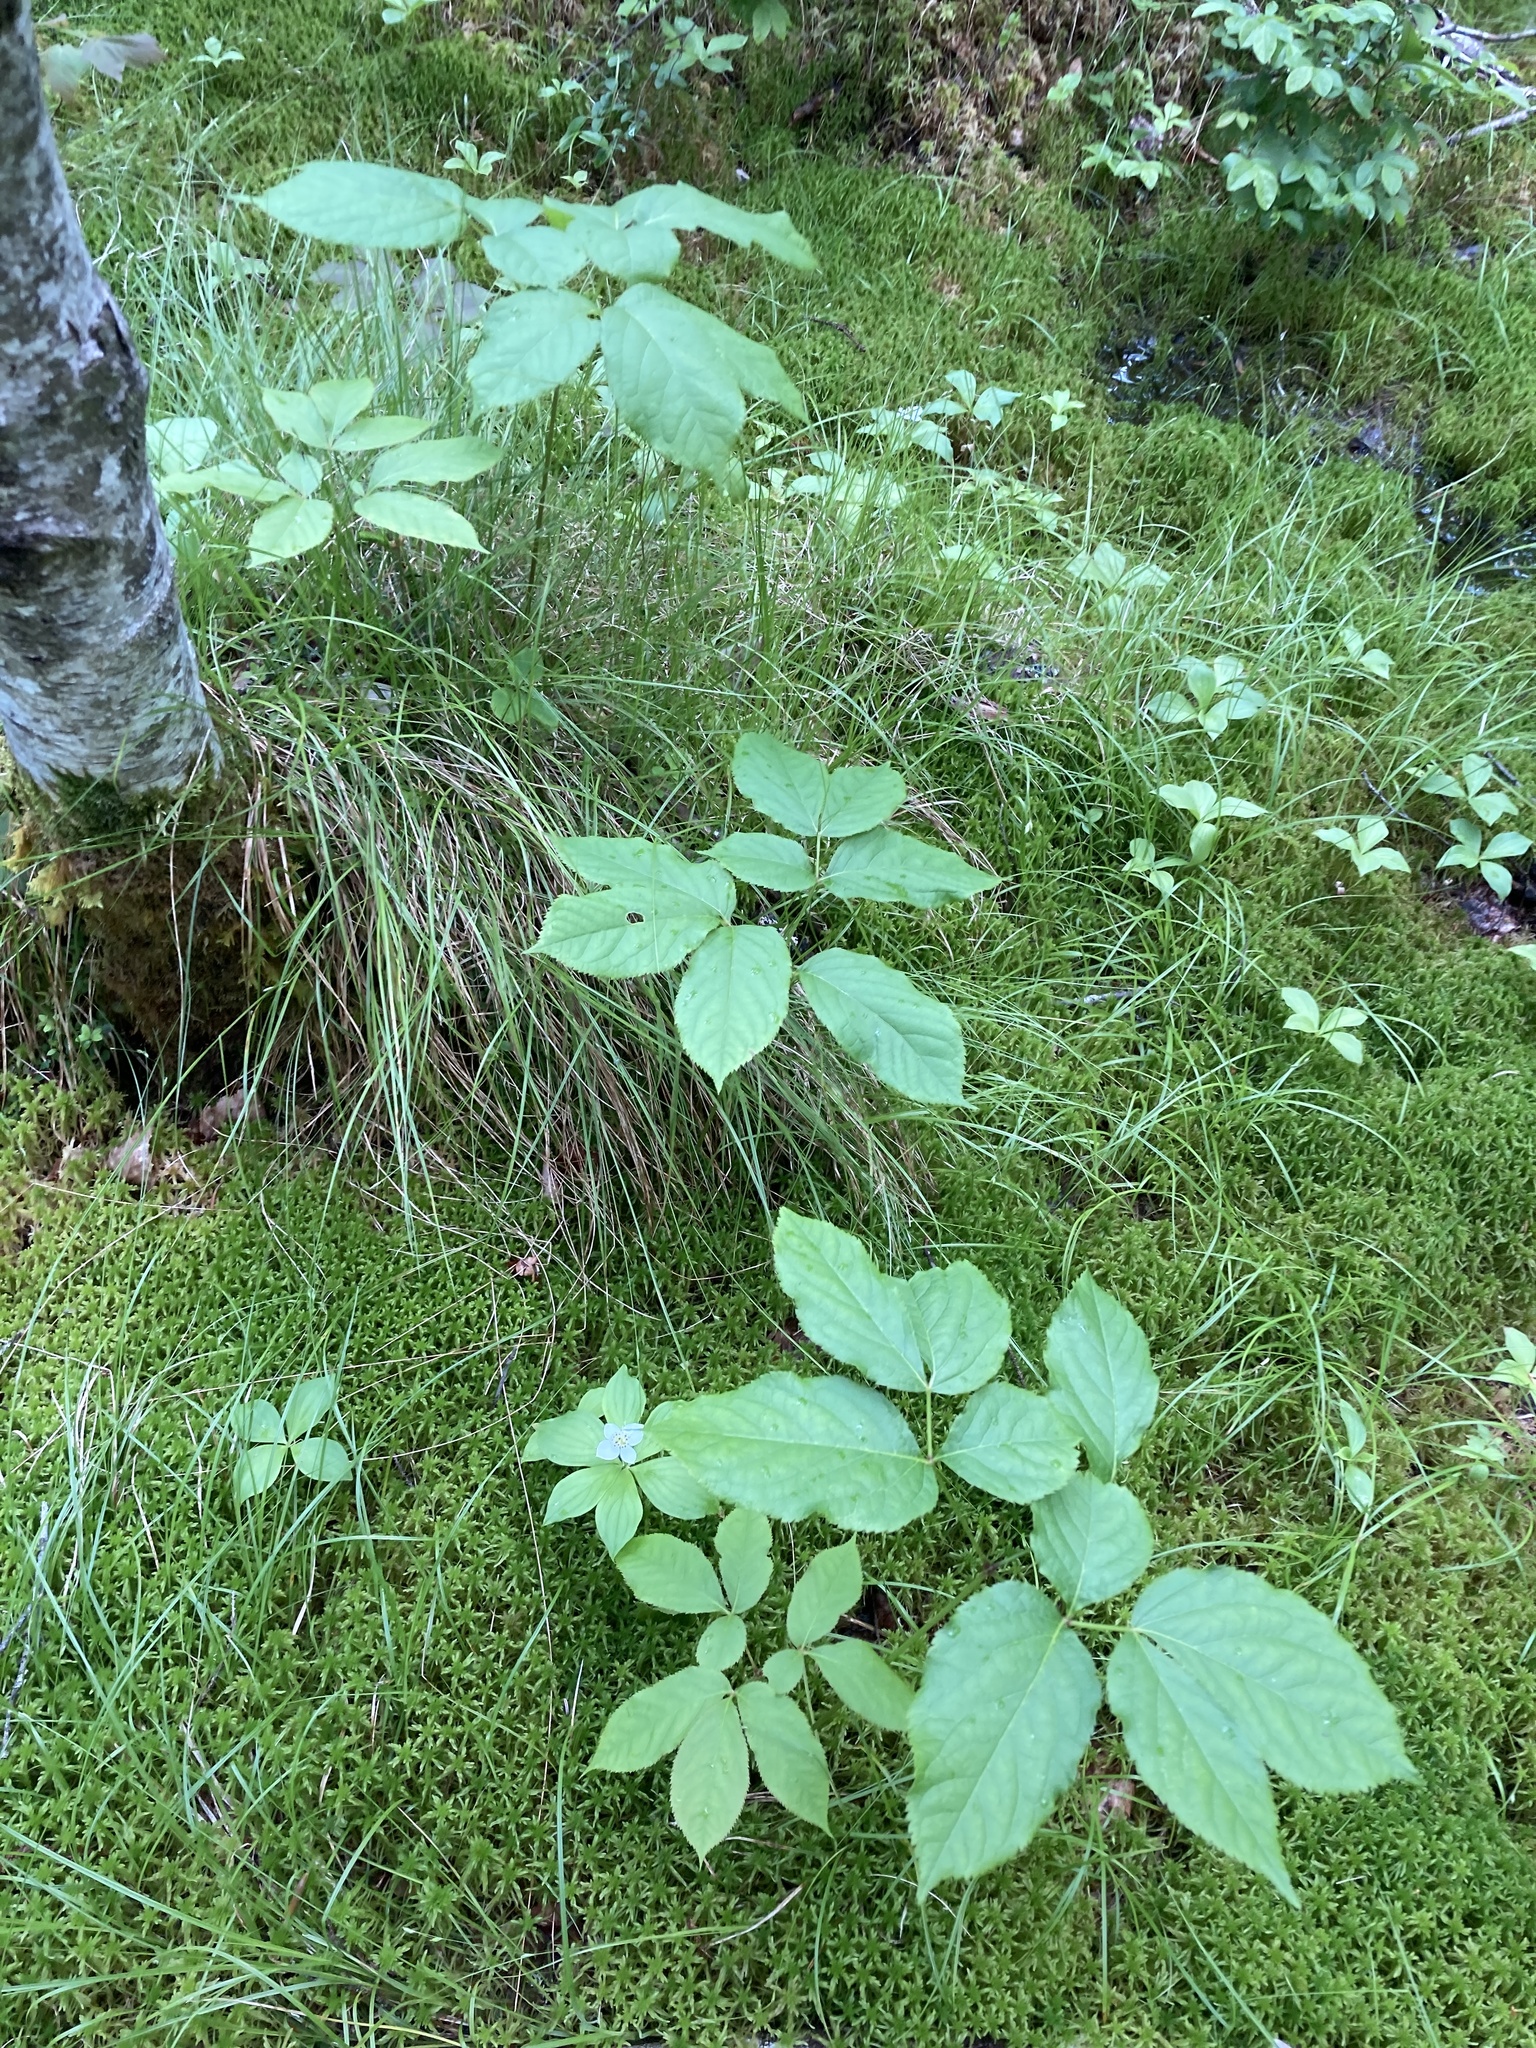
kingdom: Plantae
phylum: Tracheophyta
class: Magnoliopsida
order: Apiales
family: Araliaceae
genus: Aralia
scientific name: Aralia nudicaulis
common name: Wild sarsaparilla
